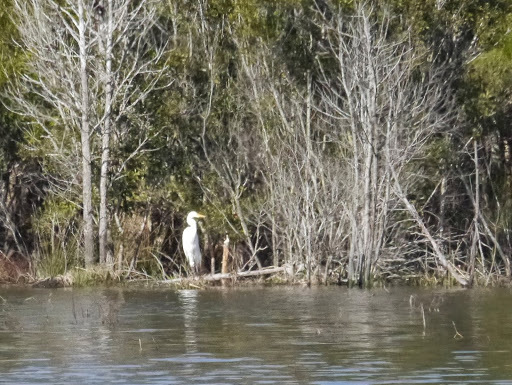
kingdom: Animalia
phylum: Chordata
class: Aves
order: Pelecaniformes
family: Ardeidae
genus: Ardea
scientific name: Ardea alba
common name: Great egret
